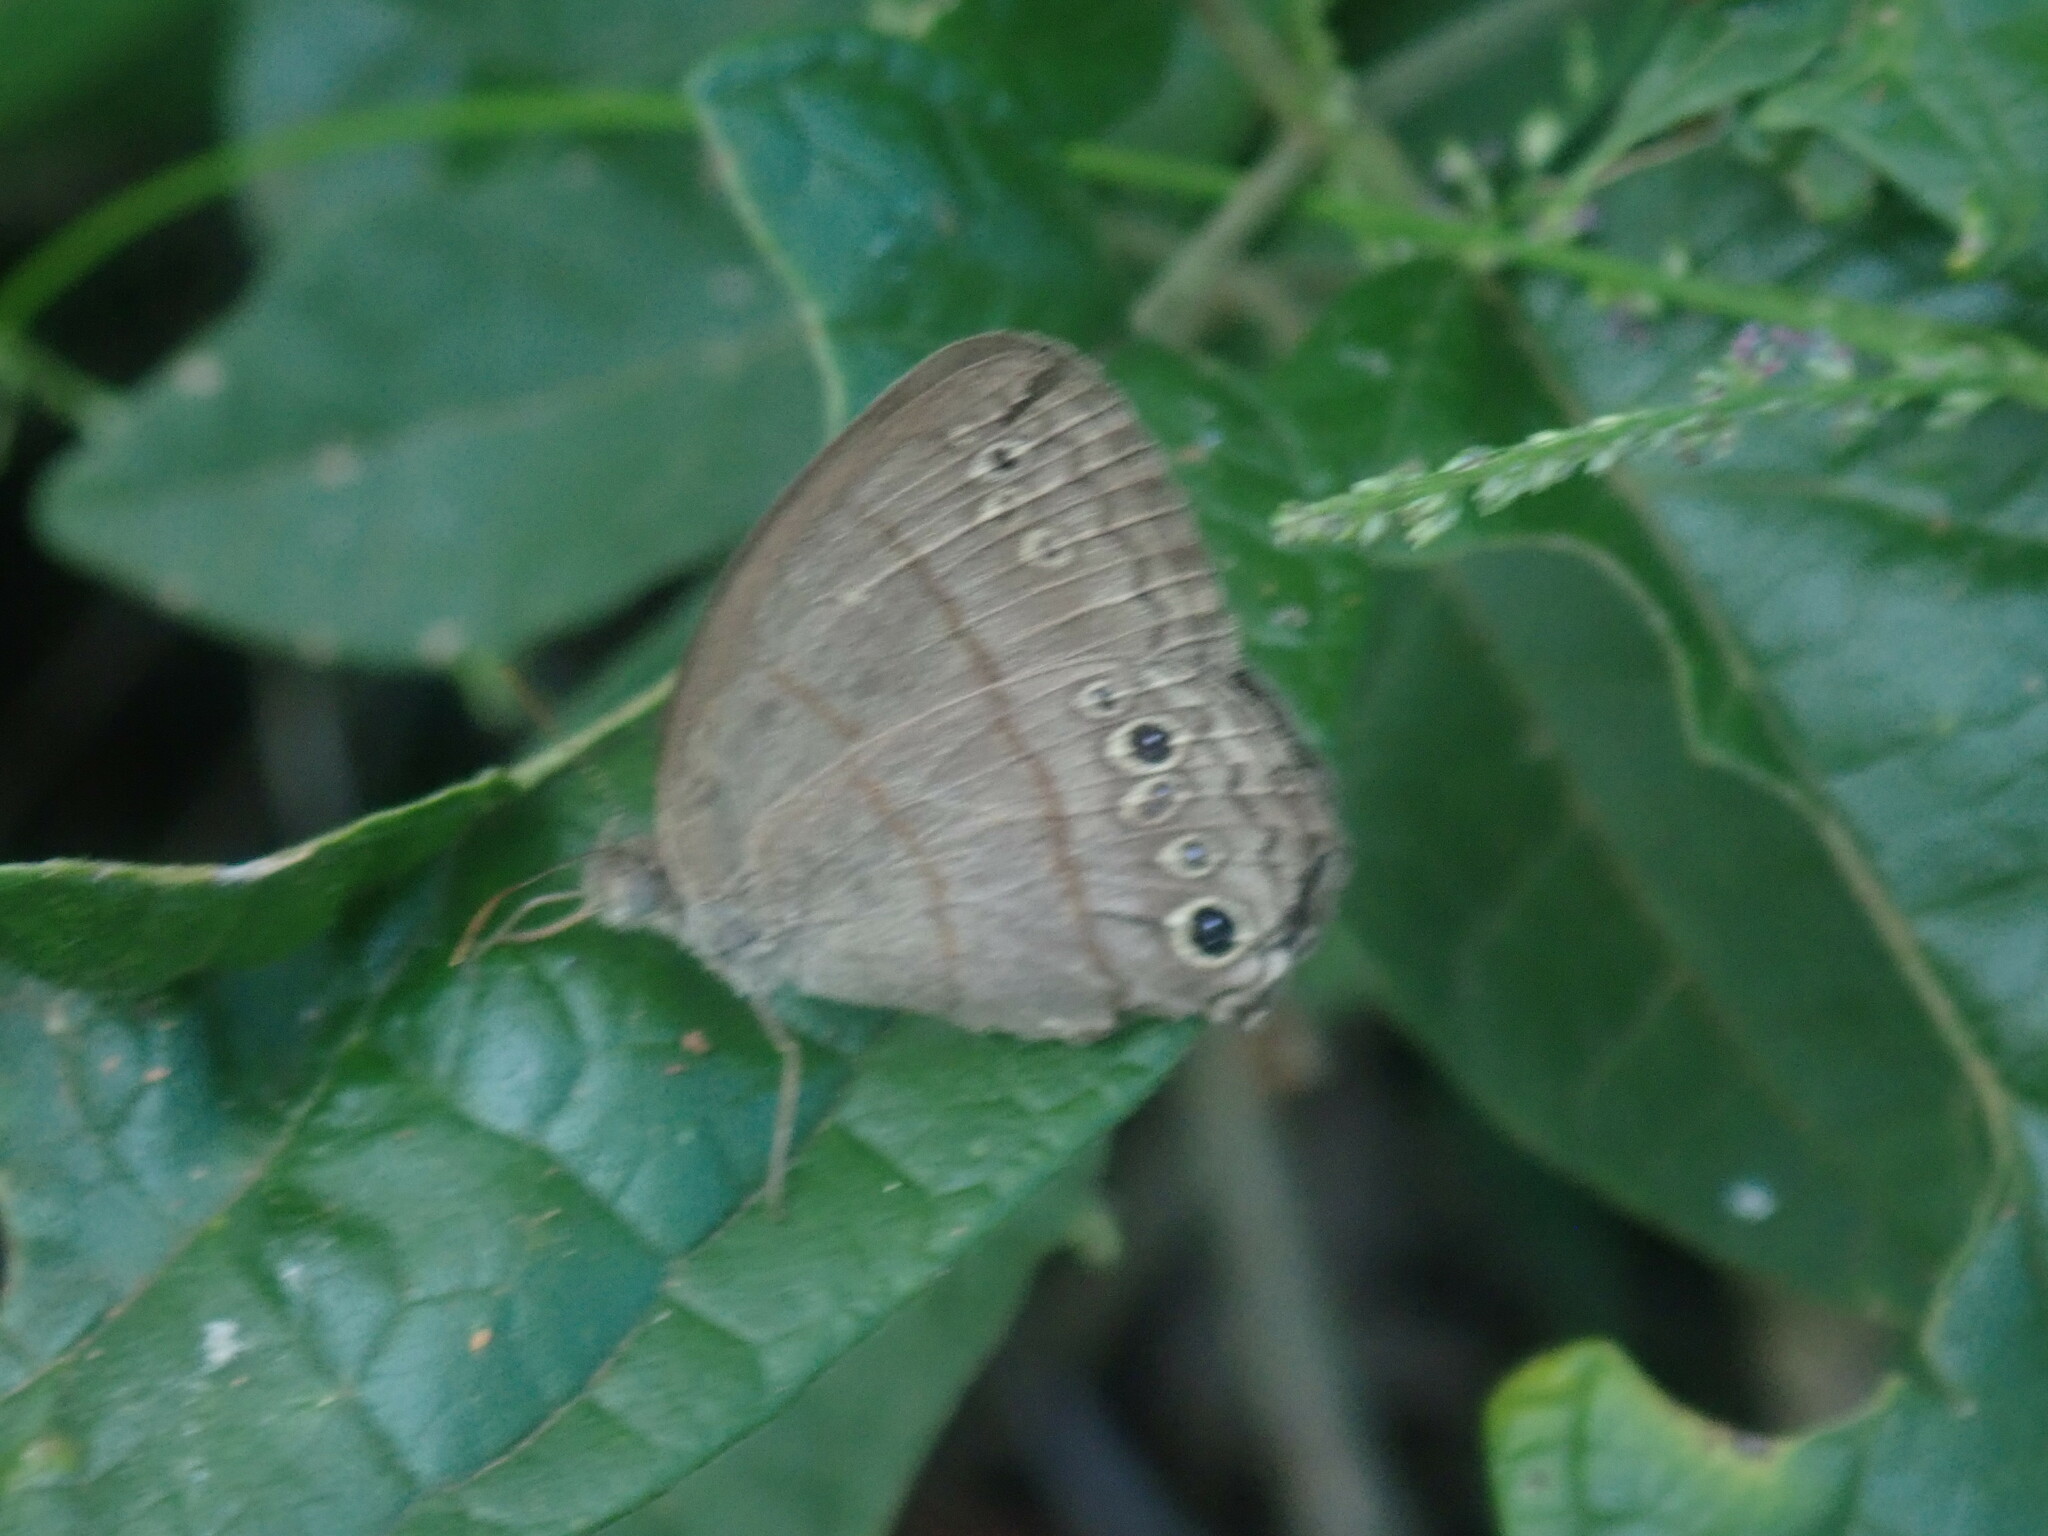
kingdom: Animalia
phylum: Arthropoda
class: Insecta
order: Lepidoptera
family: Nymphalidae
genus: Vareuptychia
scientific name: Vareuptychia similis
